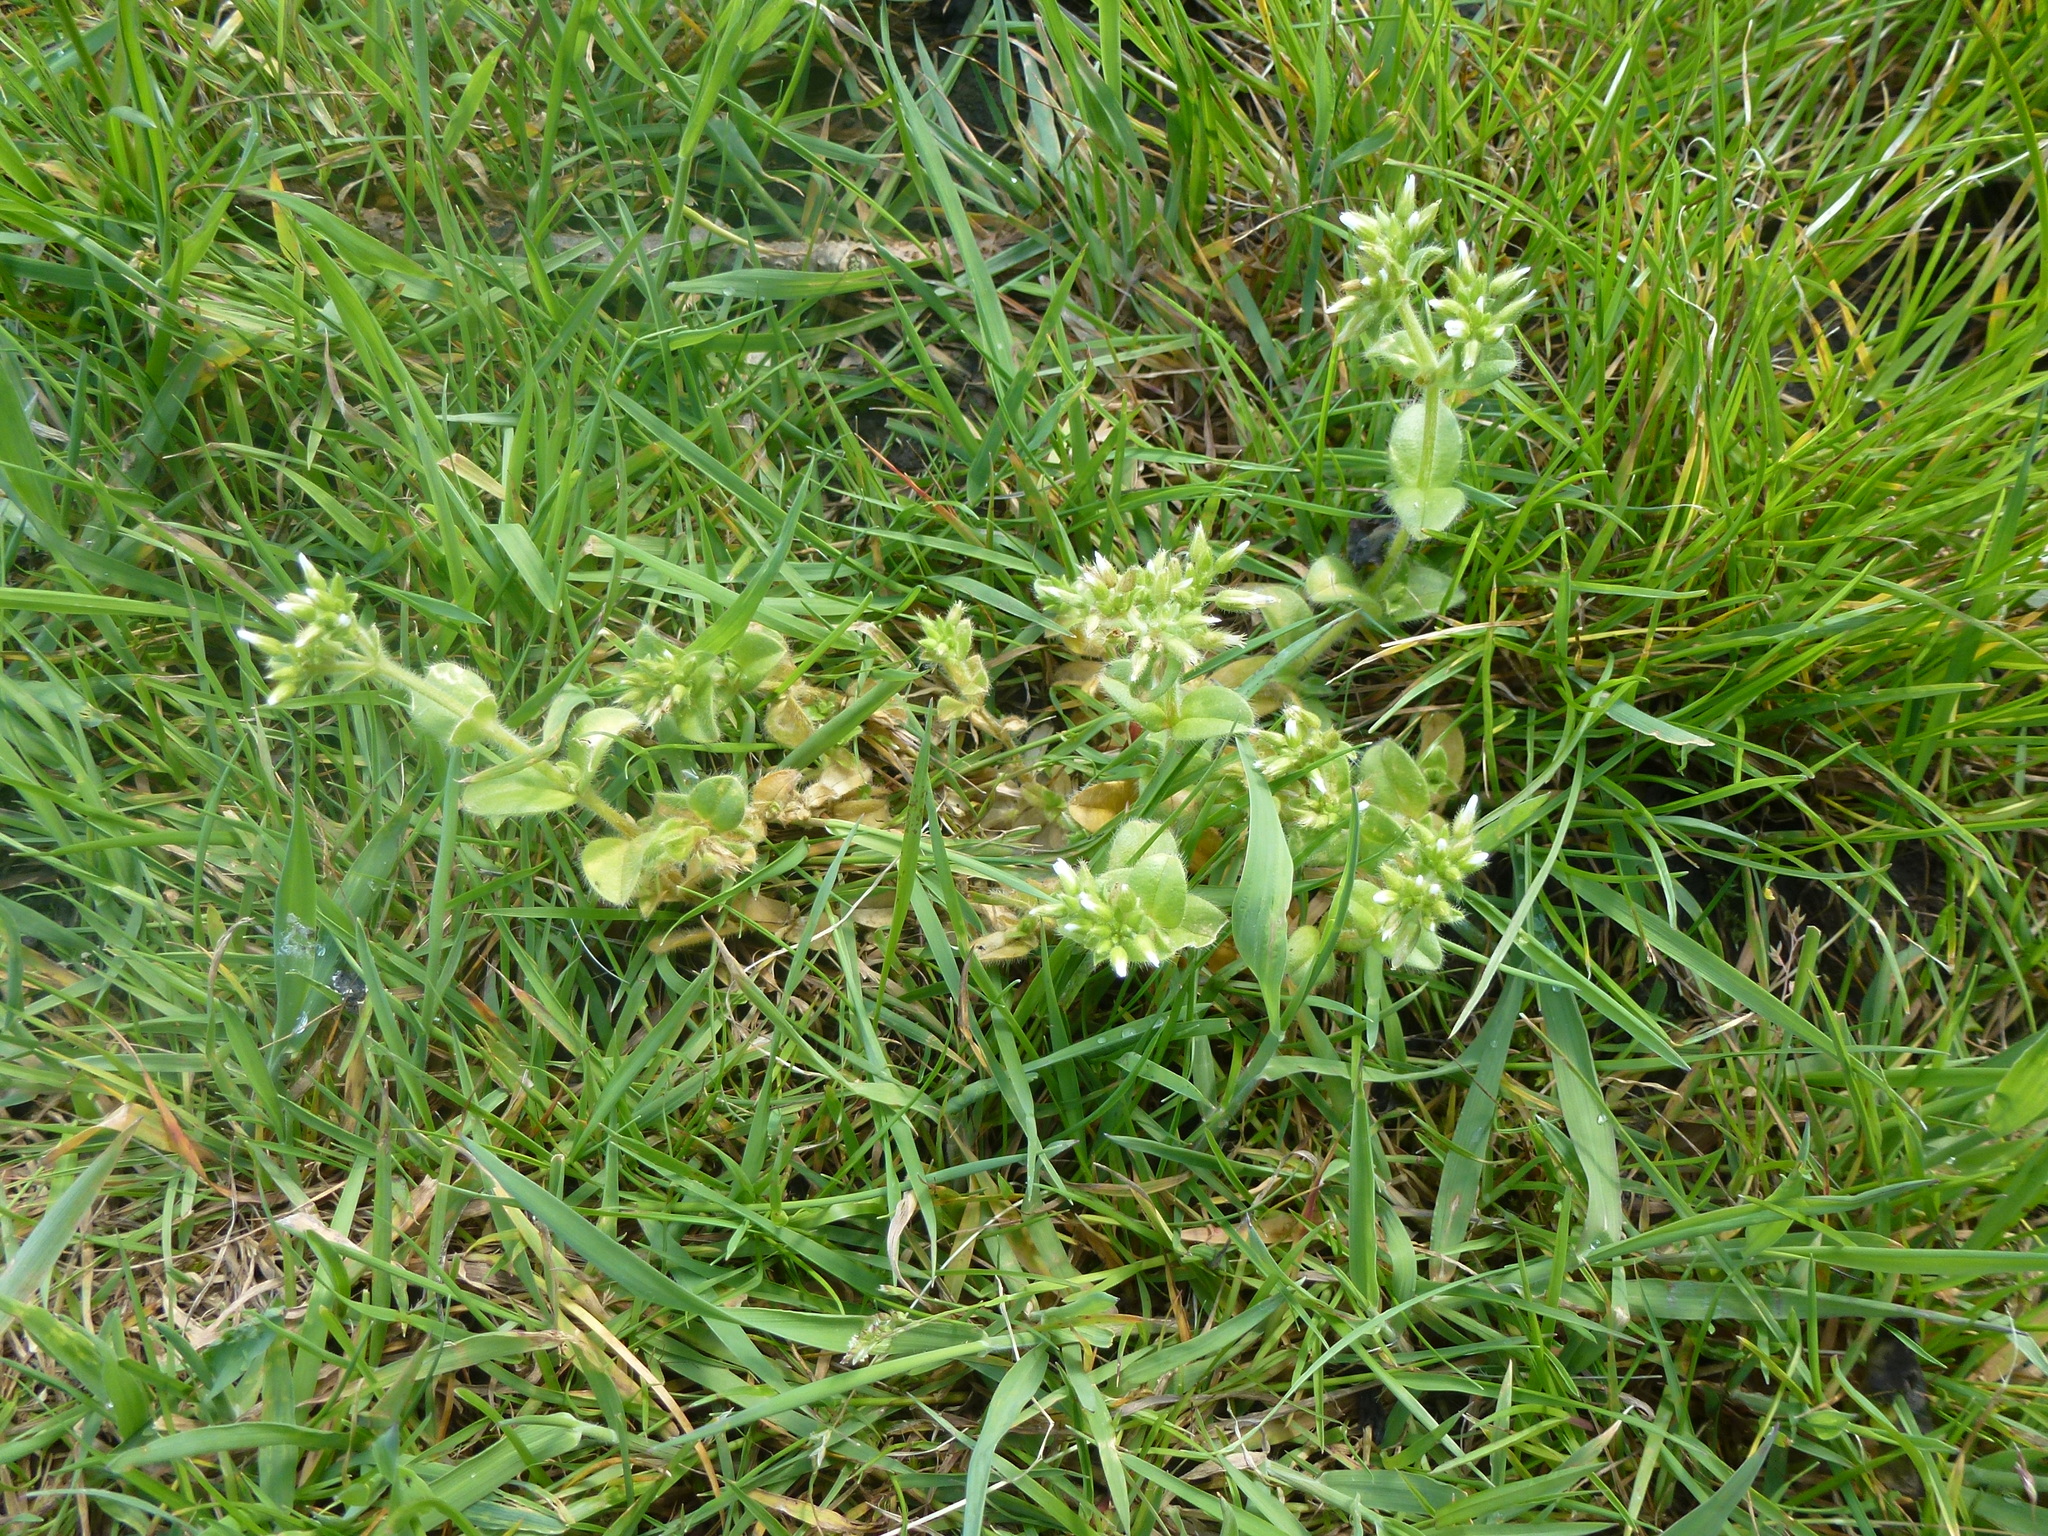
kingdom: Plantae
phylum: Tracheophyta
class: Magnoliopsida
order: Caryophyllales
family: Caryophyllaceae
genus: Cerastium
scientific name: Cerastium glomeratum
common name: Sticky chickweed
